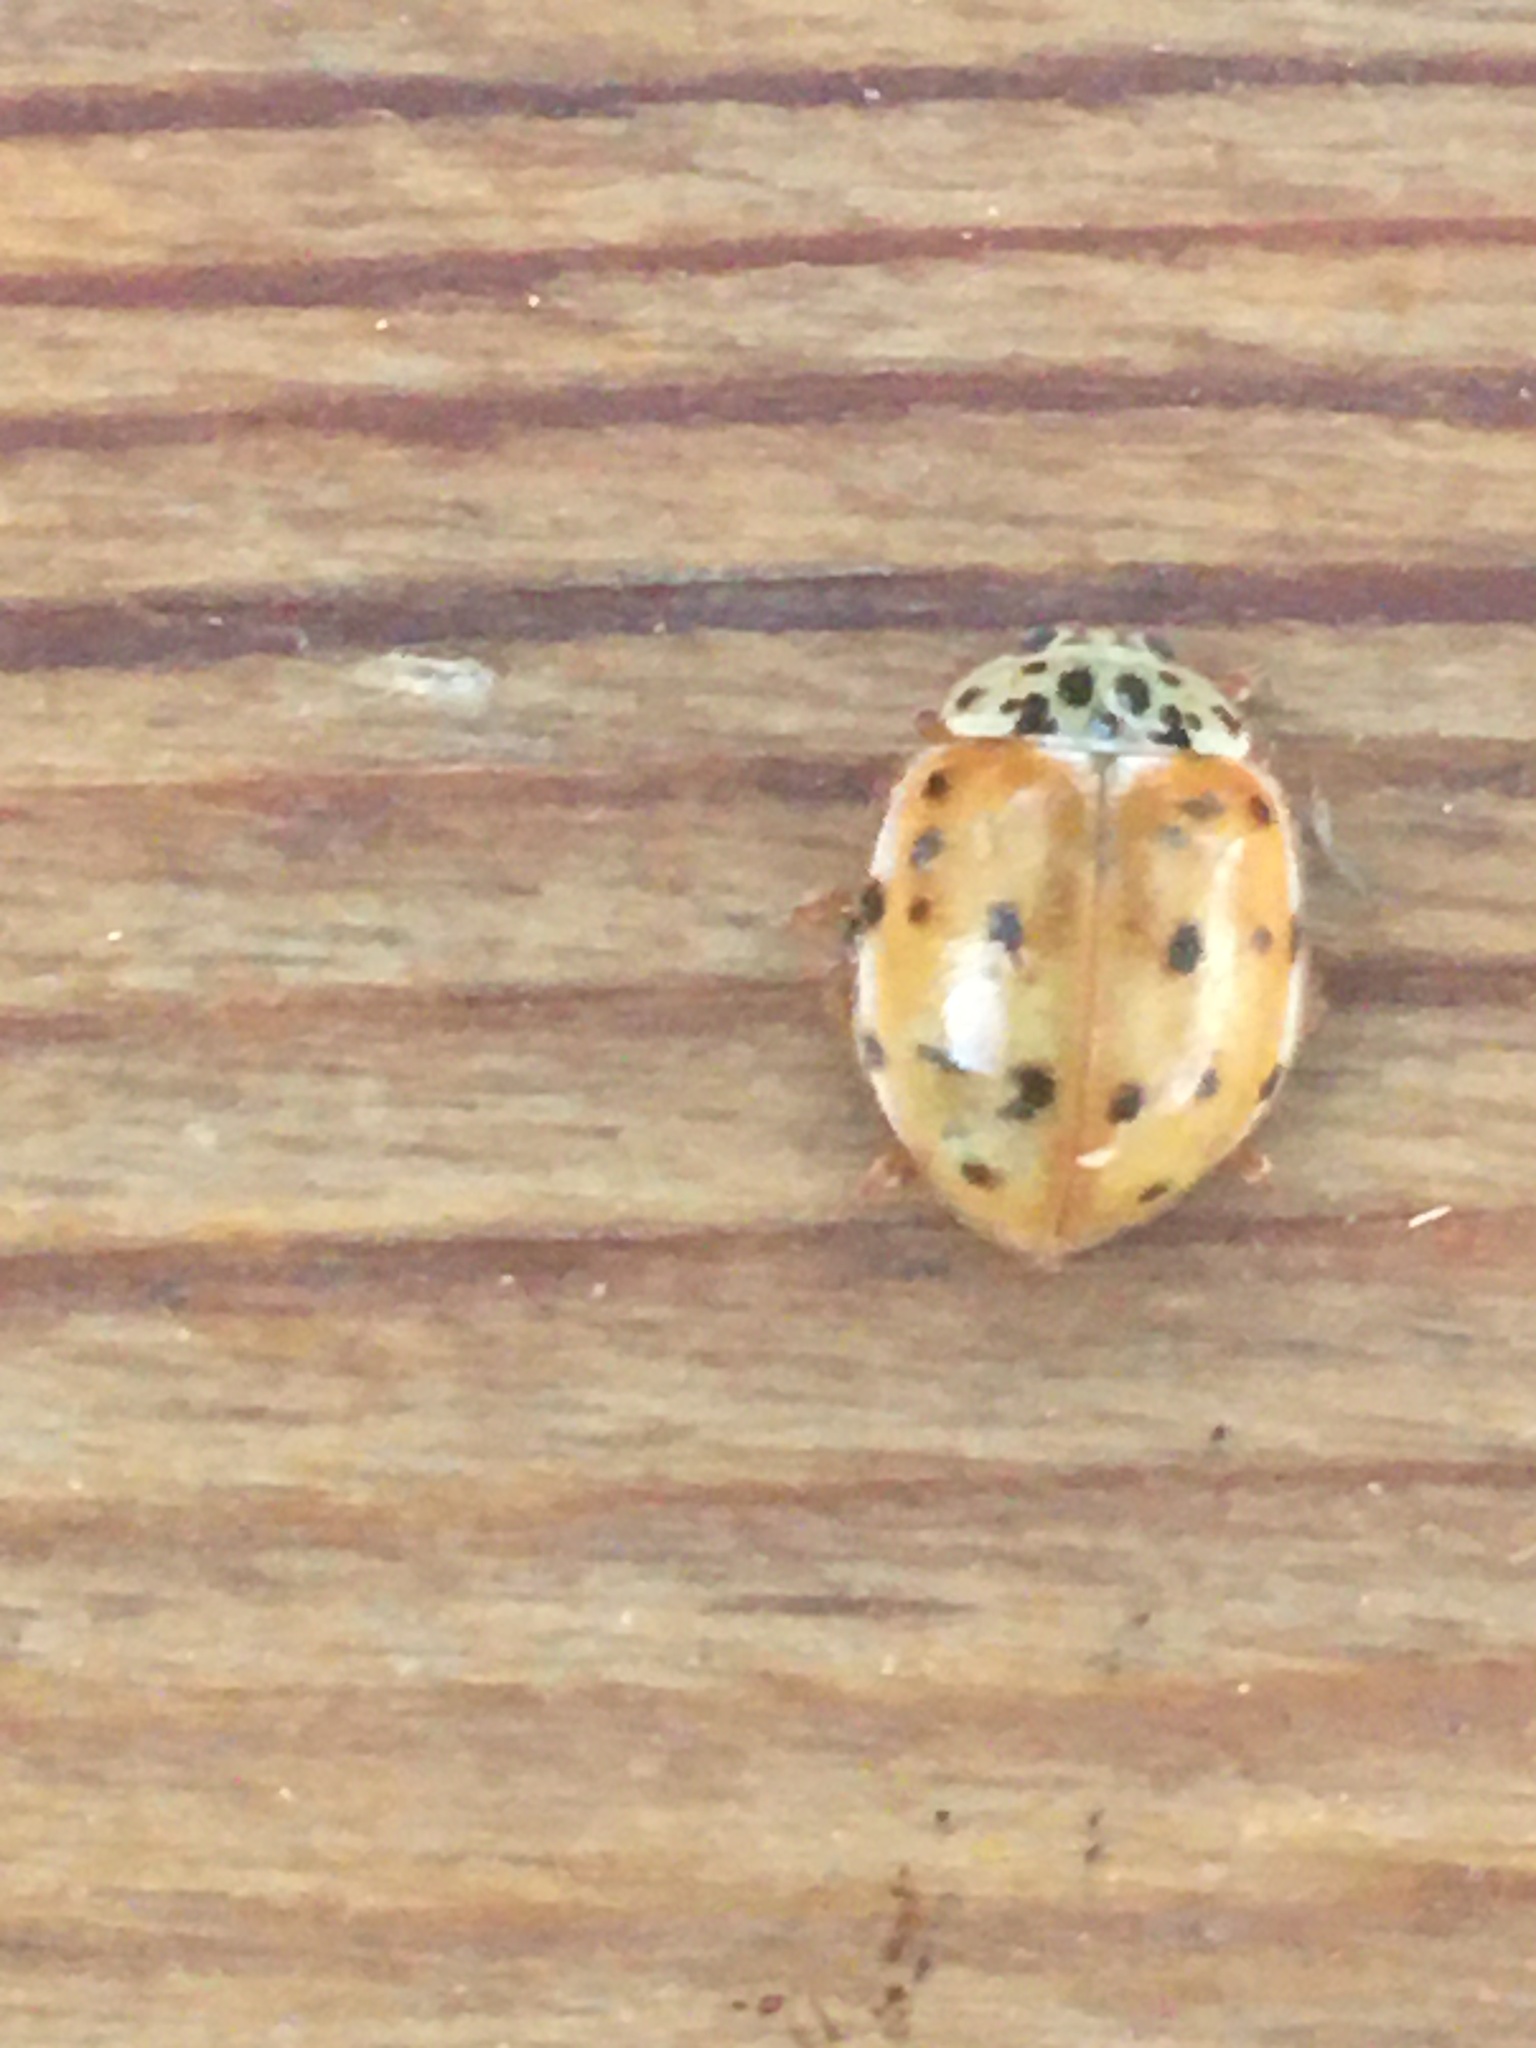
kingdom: Animalia
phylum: Arthropoda
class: Insecta
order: Coleoptera
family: Coccinellidae
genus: Harmonia
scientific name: Harmonia quadripunctata
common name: Cream-streaked ladybird
